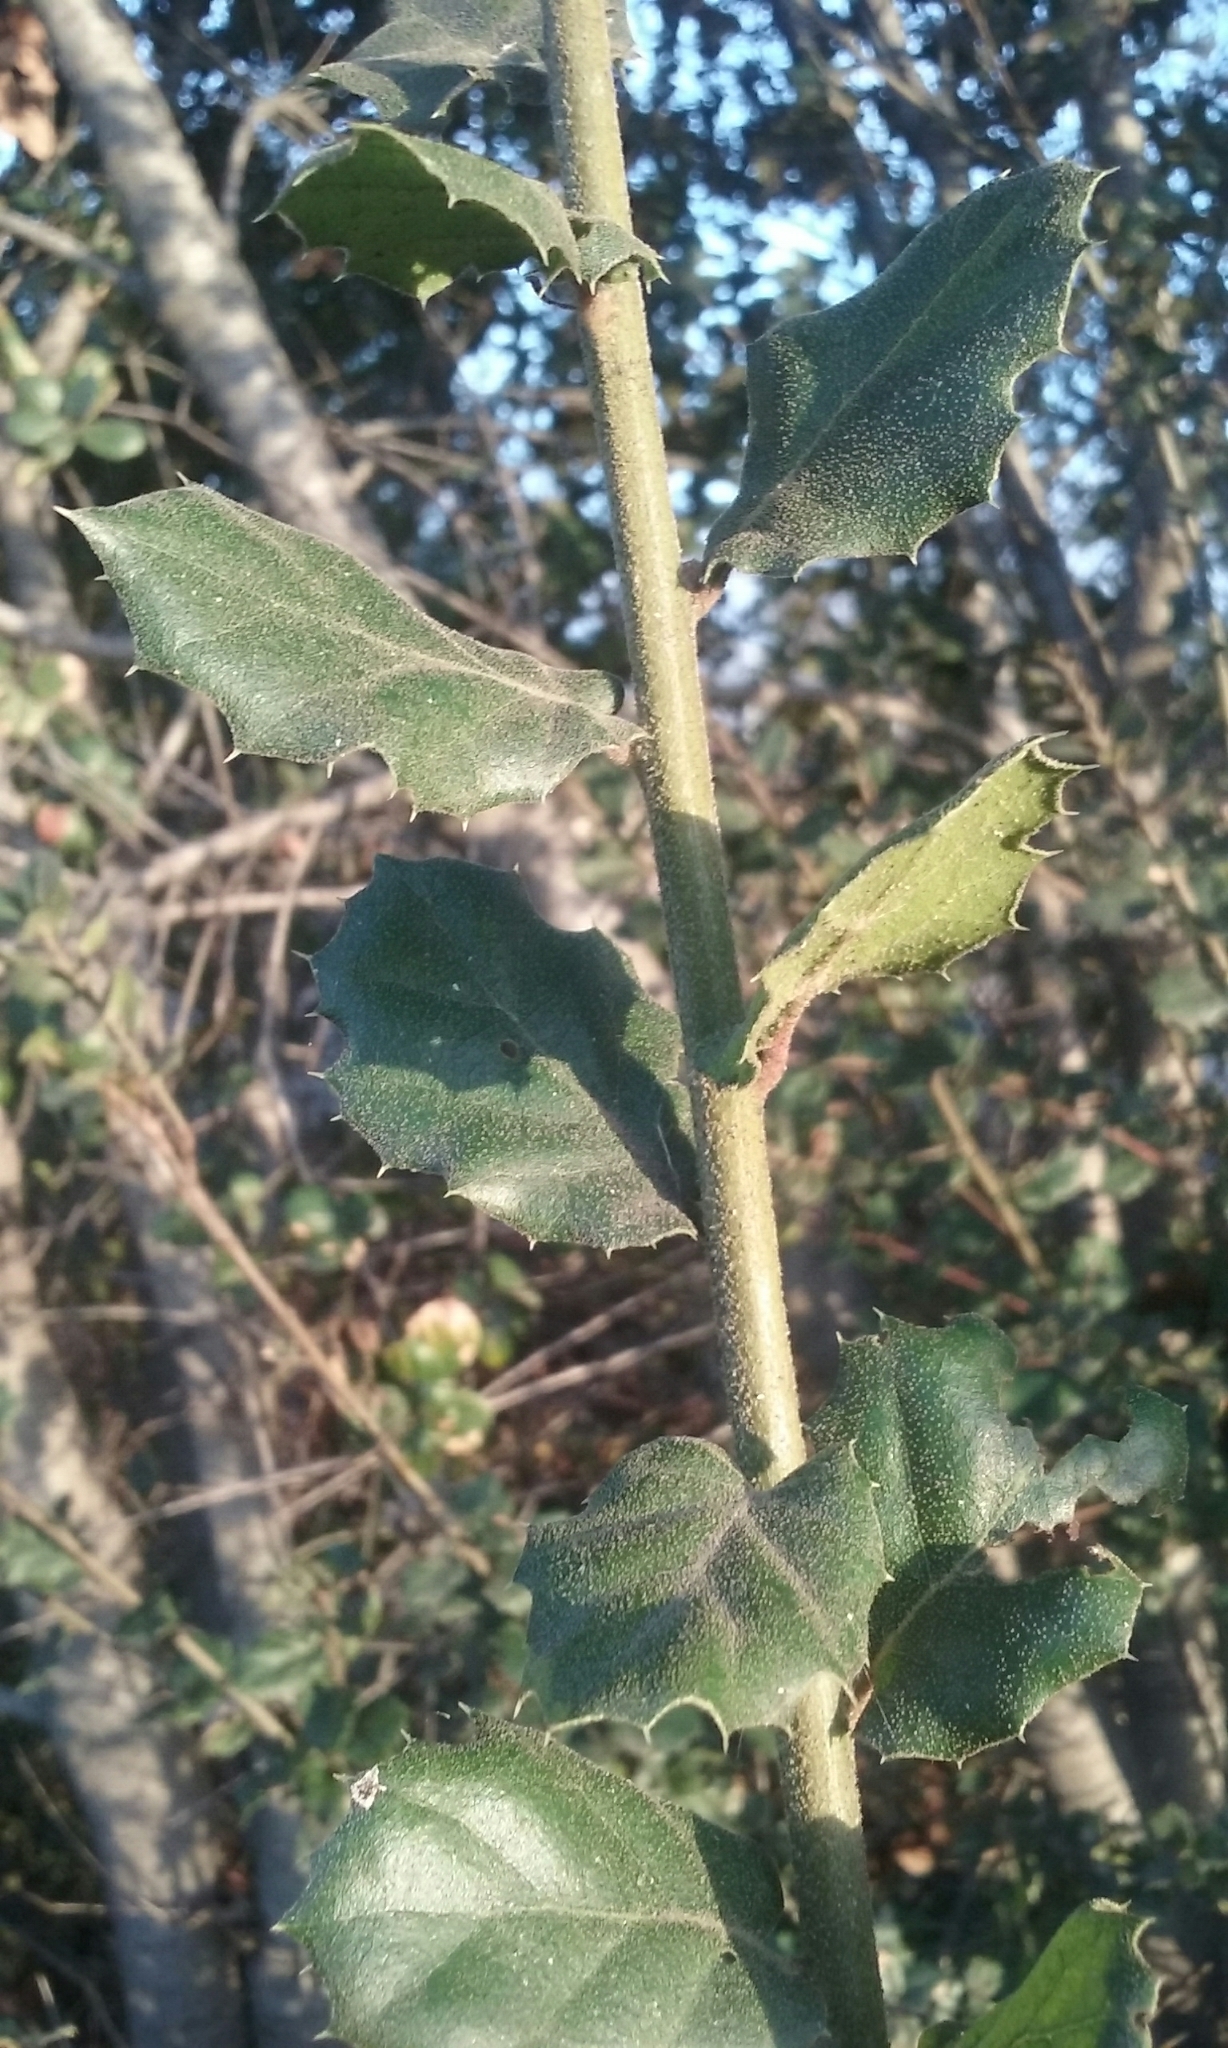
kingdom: Plantae
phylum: Tracheophyta
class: Magnoliopsida
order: Fagales
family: Fagaceae
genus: Quercus
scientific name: Quercus agrifolia
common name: California live oak
